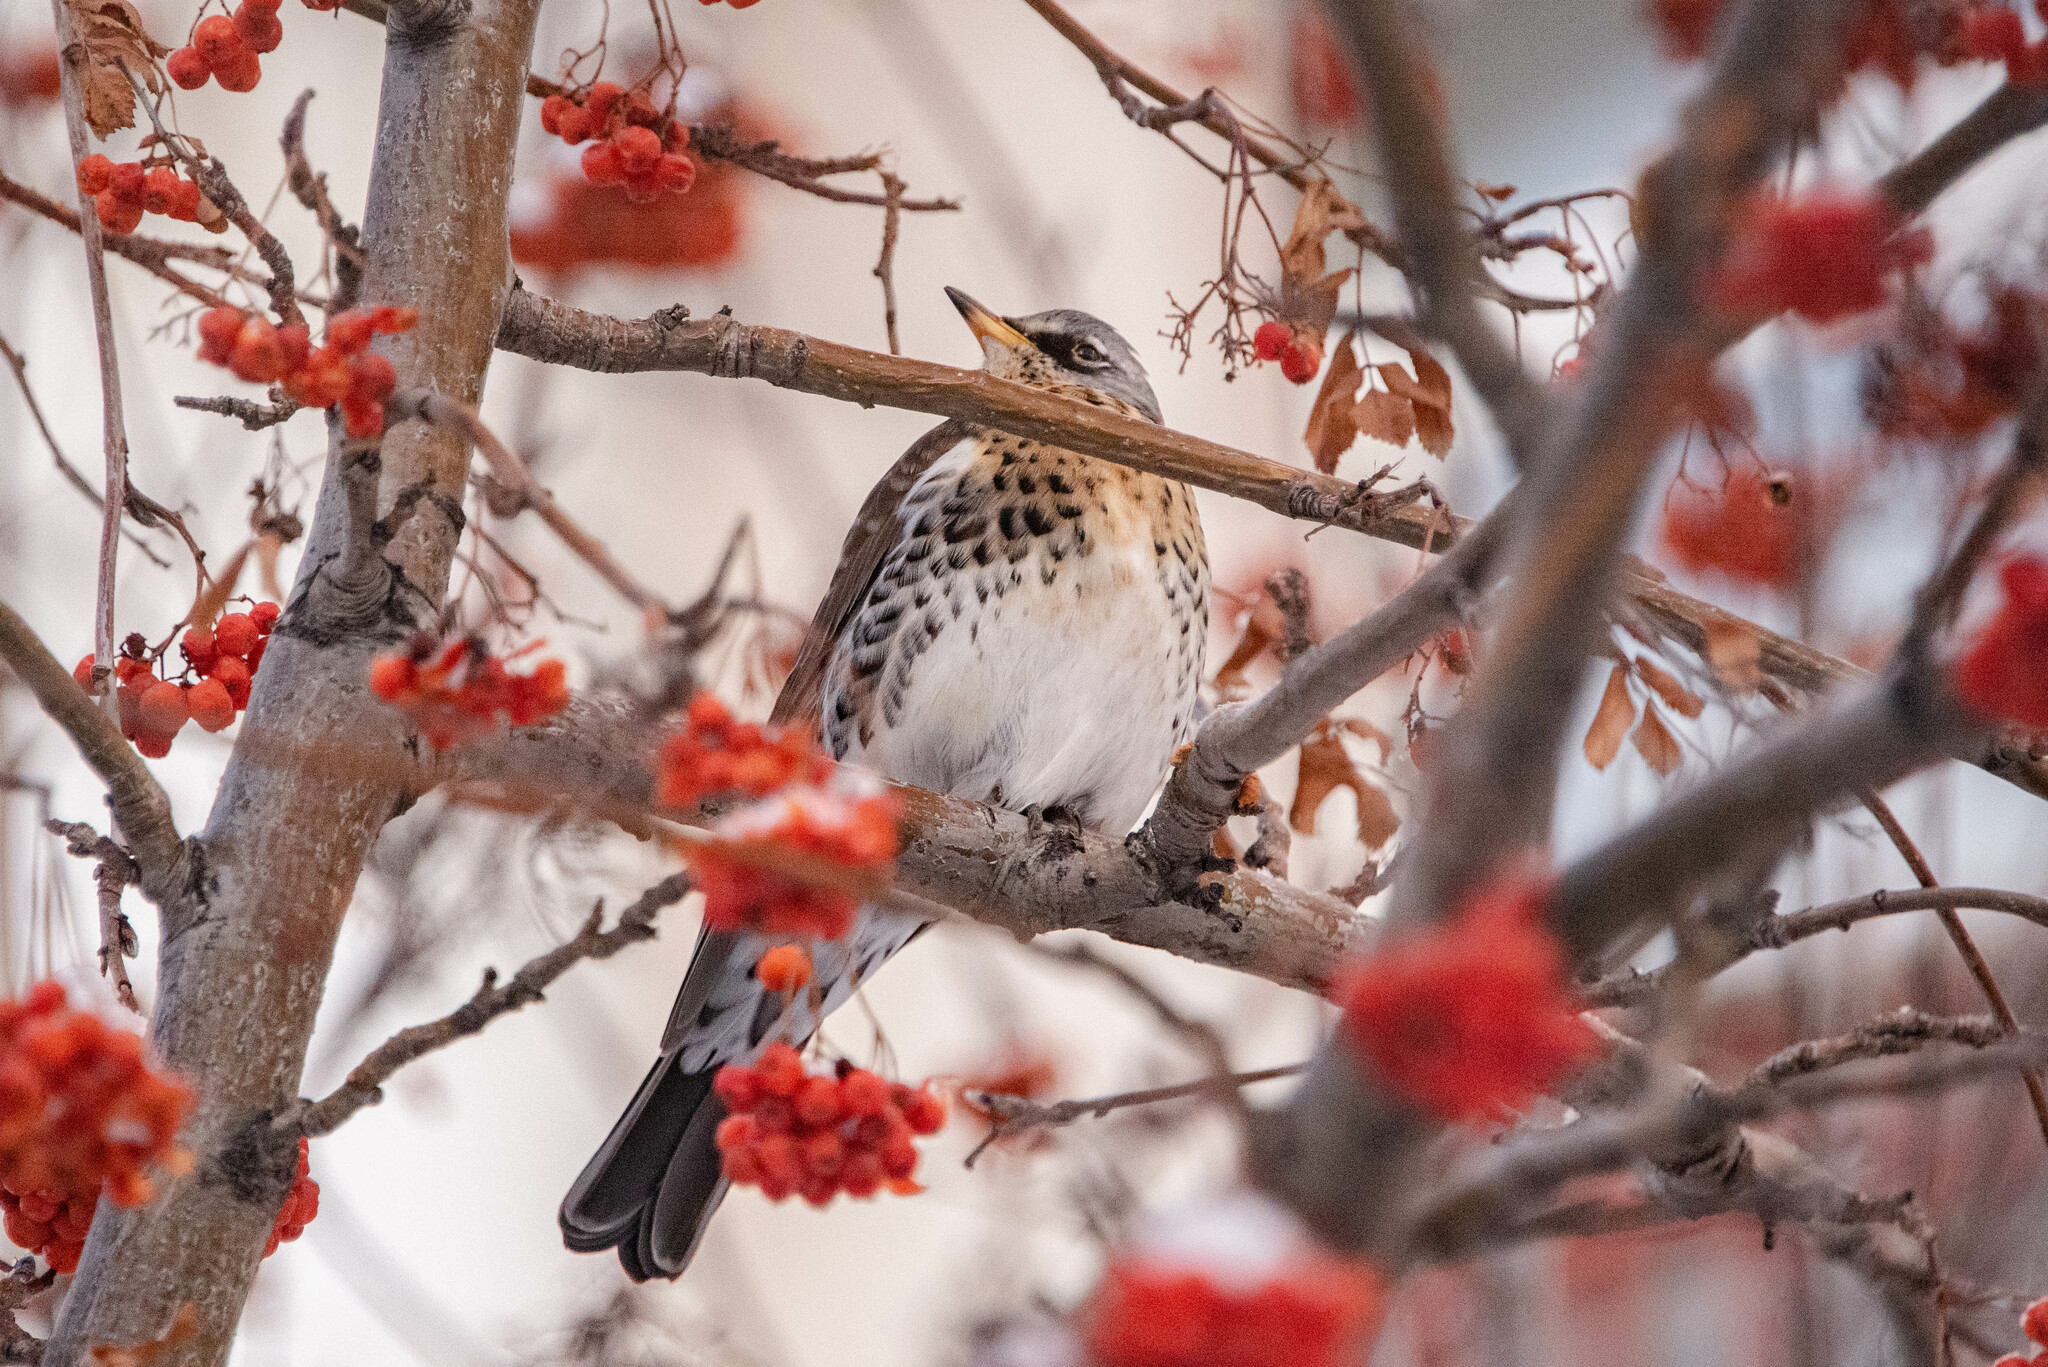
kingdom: Animalia
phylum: Chordata
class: Aves
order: Passeriformes
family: Turdidae
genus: Turdus
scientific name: Turdus pilaris
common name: Fieldfare
